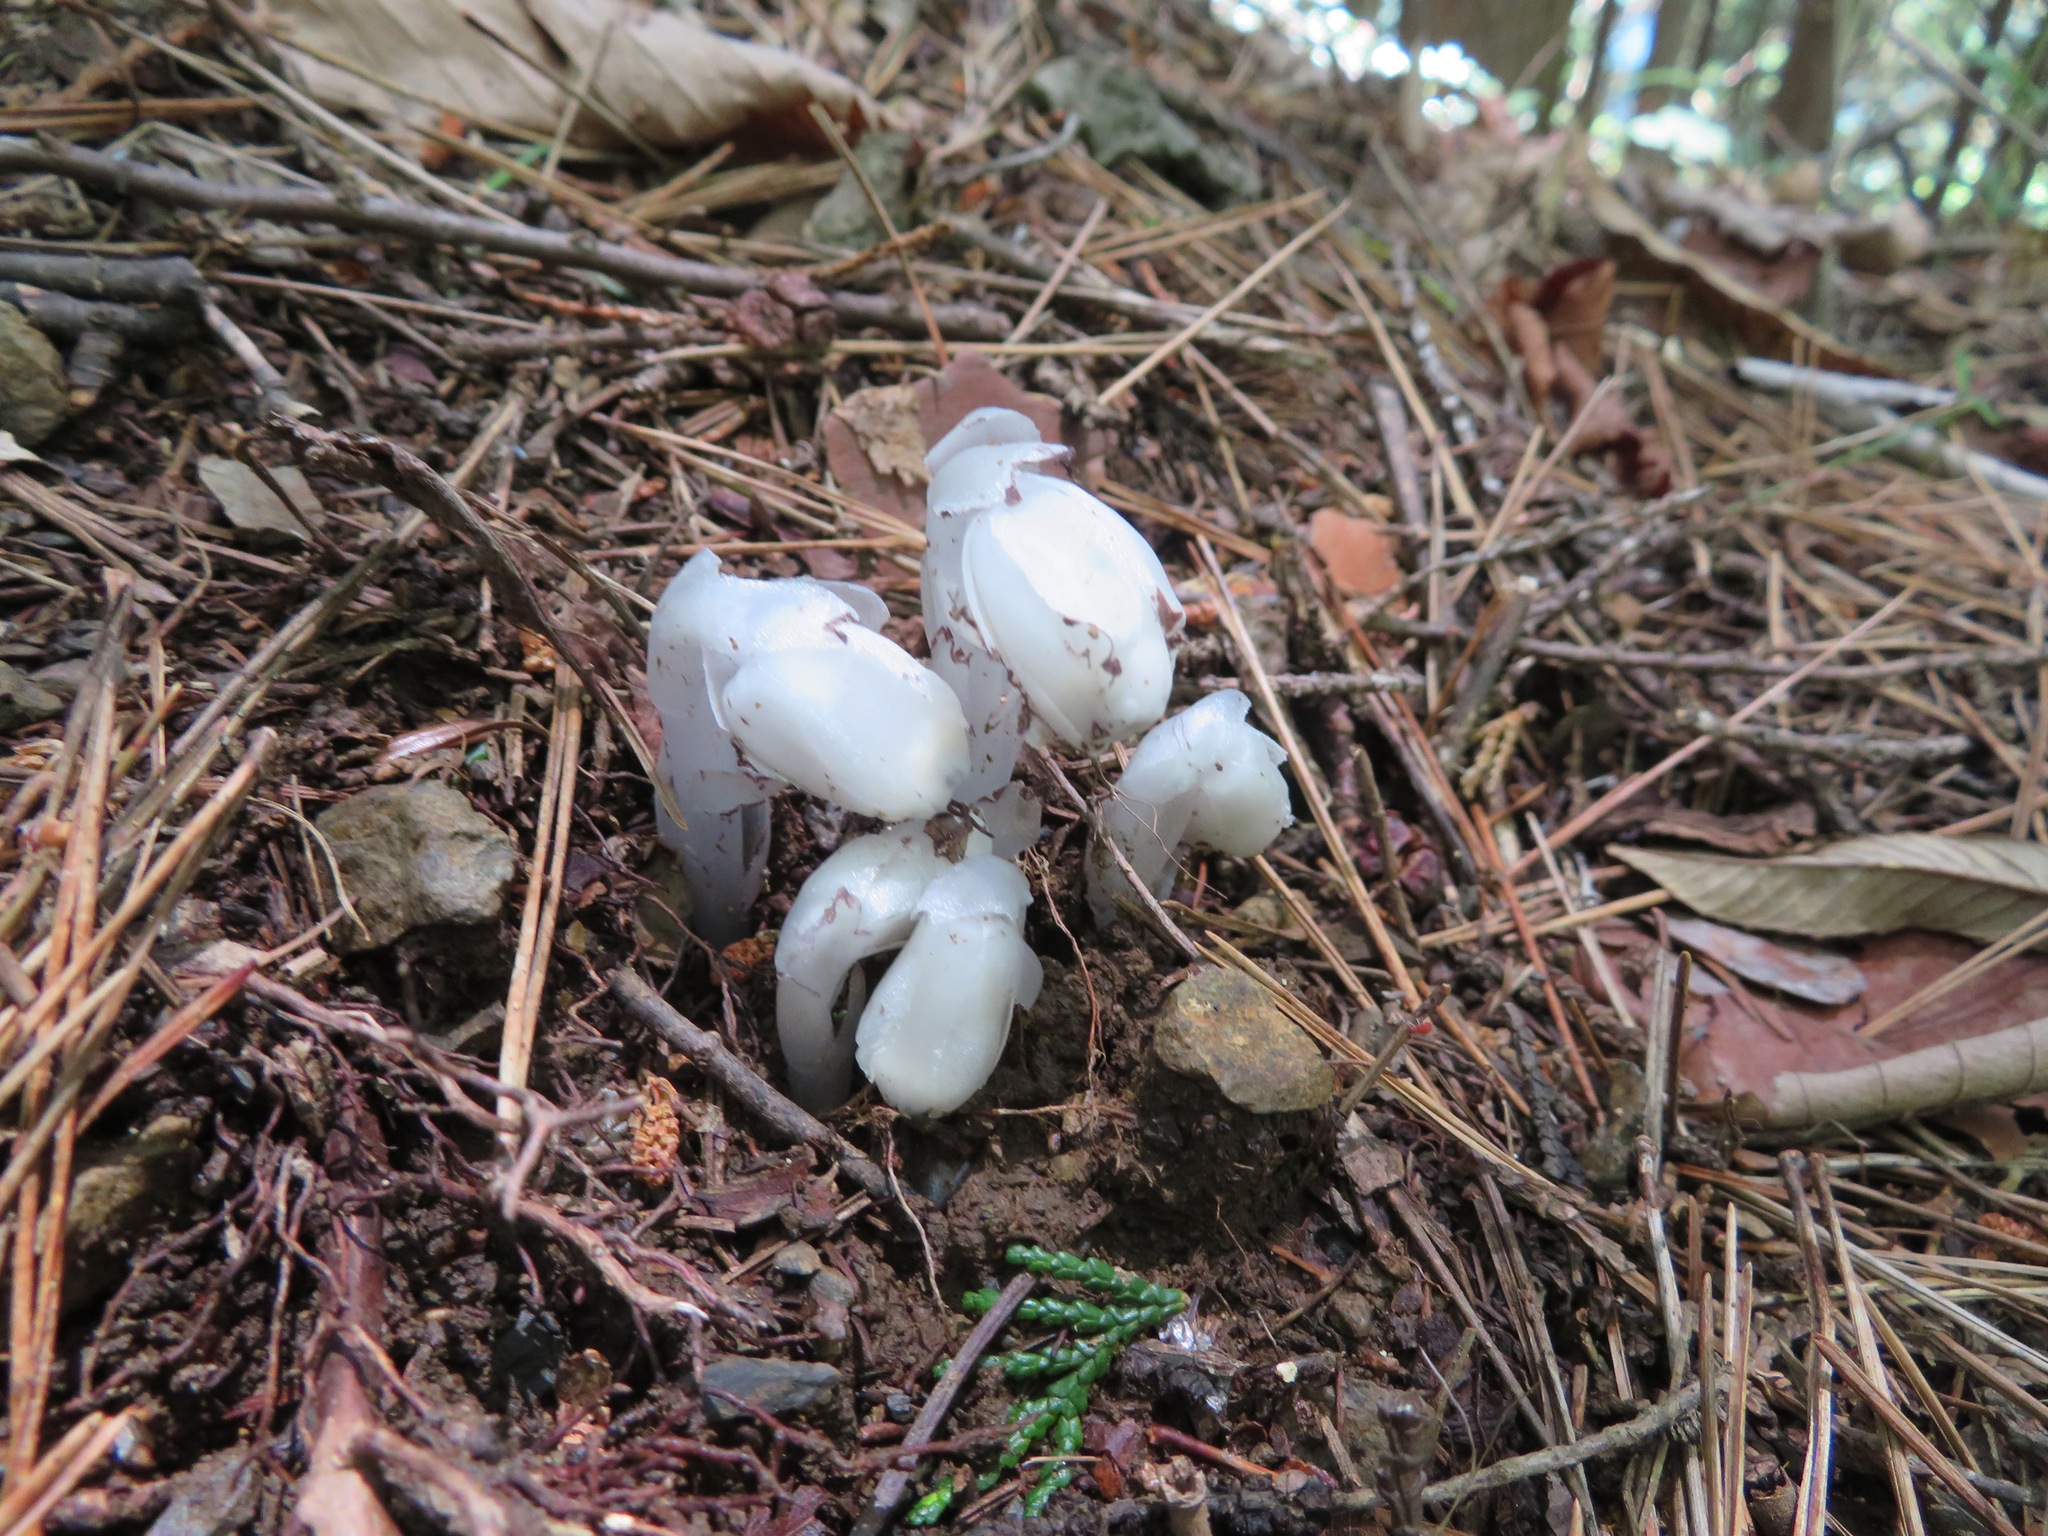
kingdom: Plantae
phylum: Tracheophyta
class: Magnoliopsida
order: Ericales
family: Ericaceae
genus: Monotropastrum
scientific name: Monotropastrum humile
